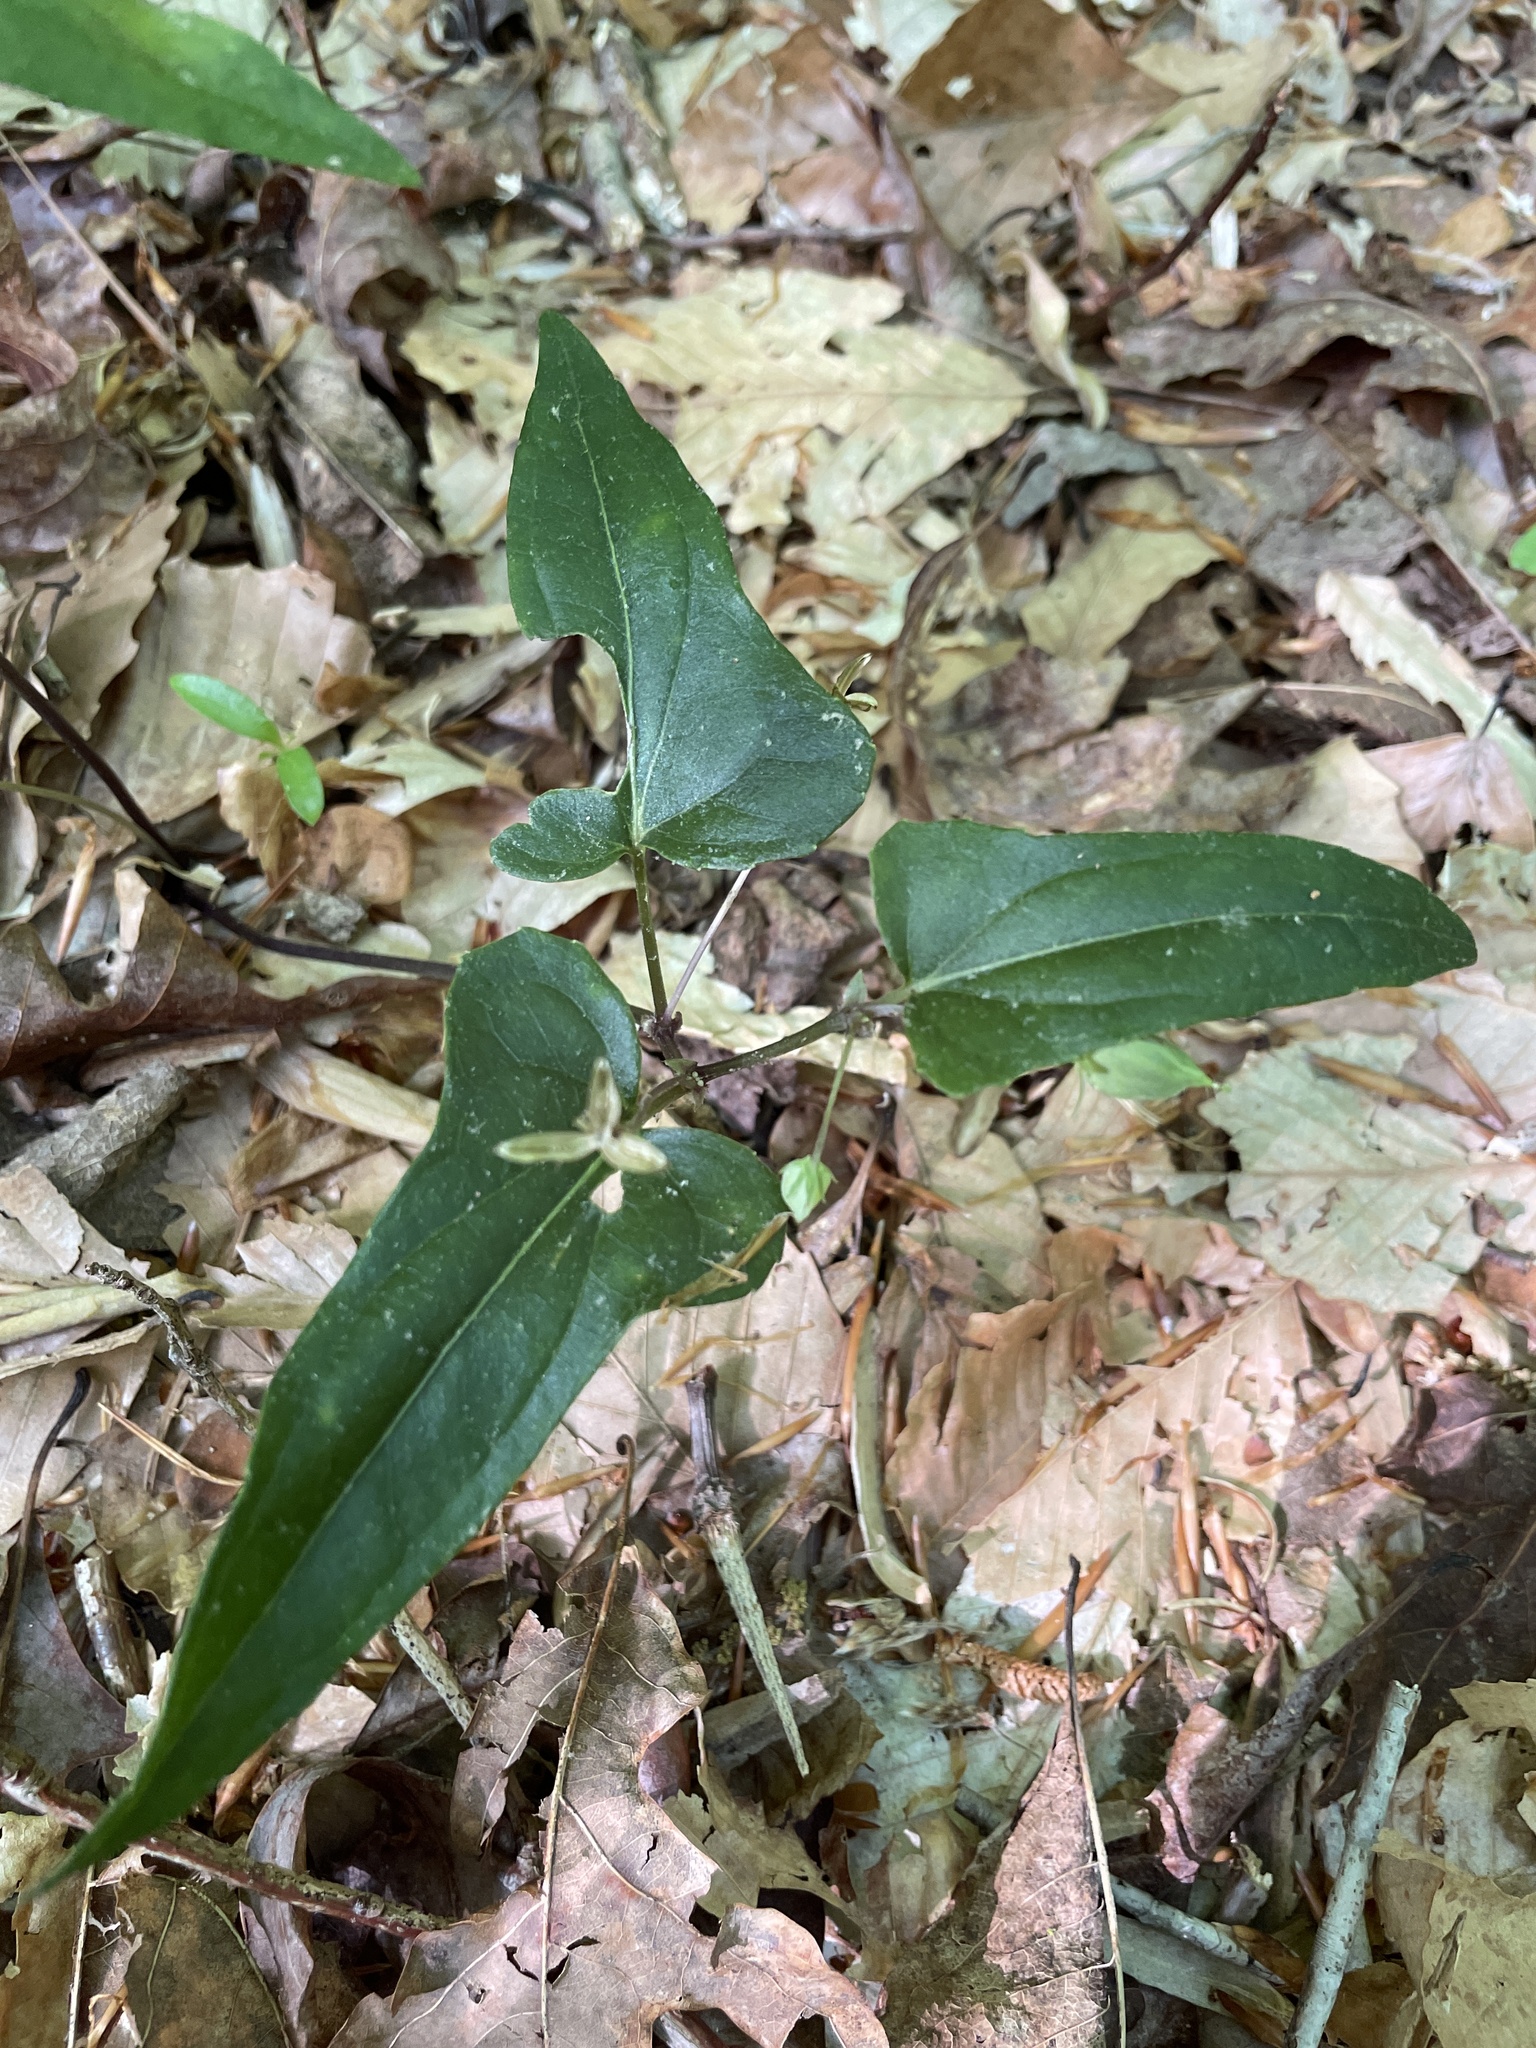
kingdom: Plantae
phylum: Tracheophyta
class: Magnoliopsida
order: Malpighiales
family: Violaceae
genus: Viola
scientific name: Viola hastata
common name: Spear-leaf violet
